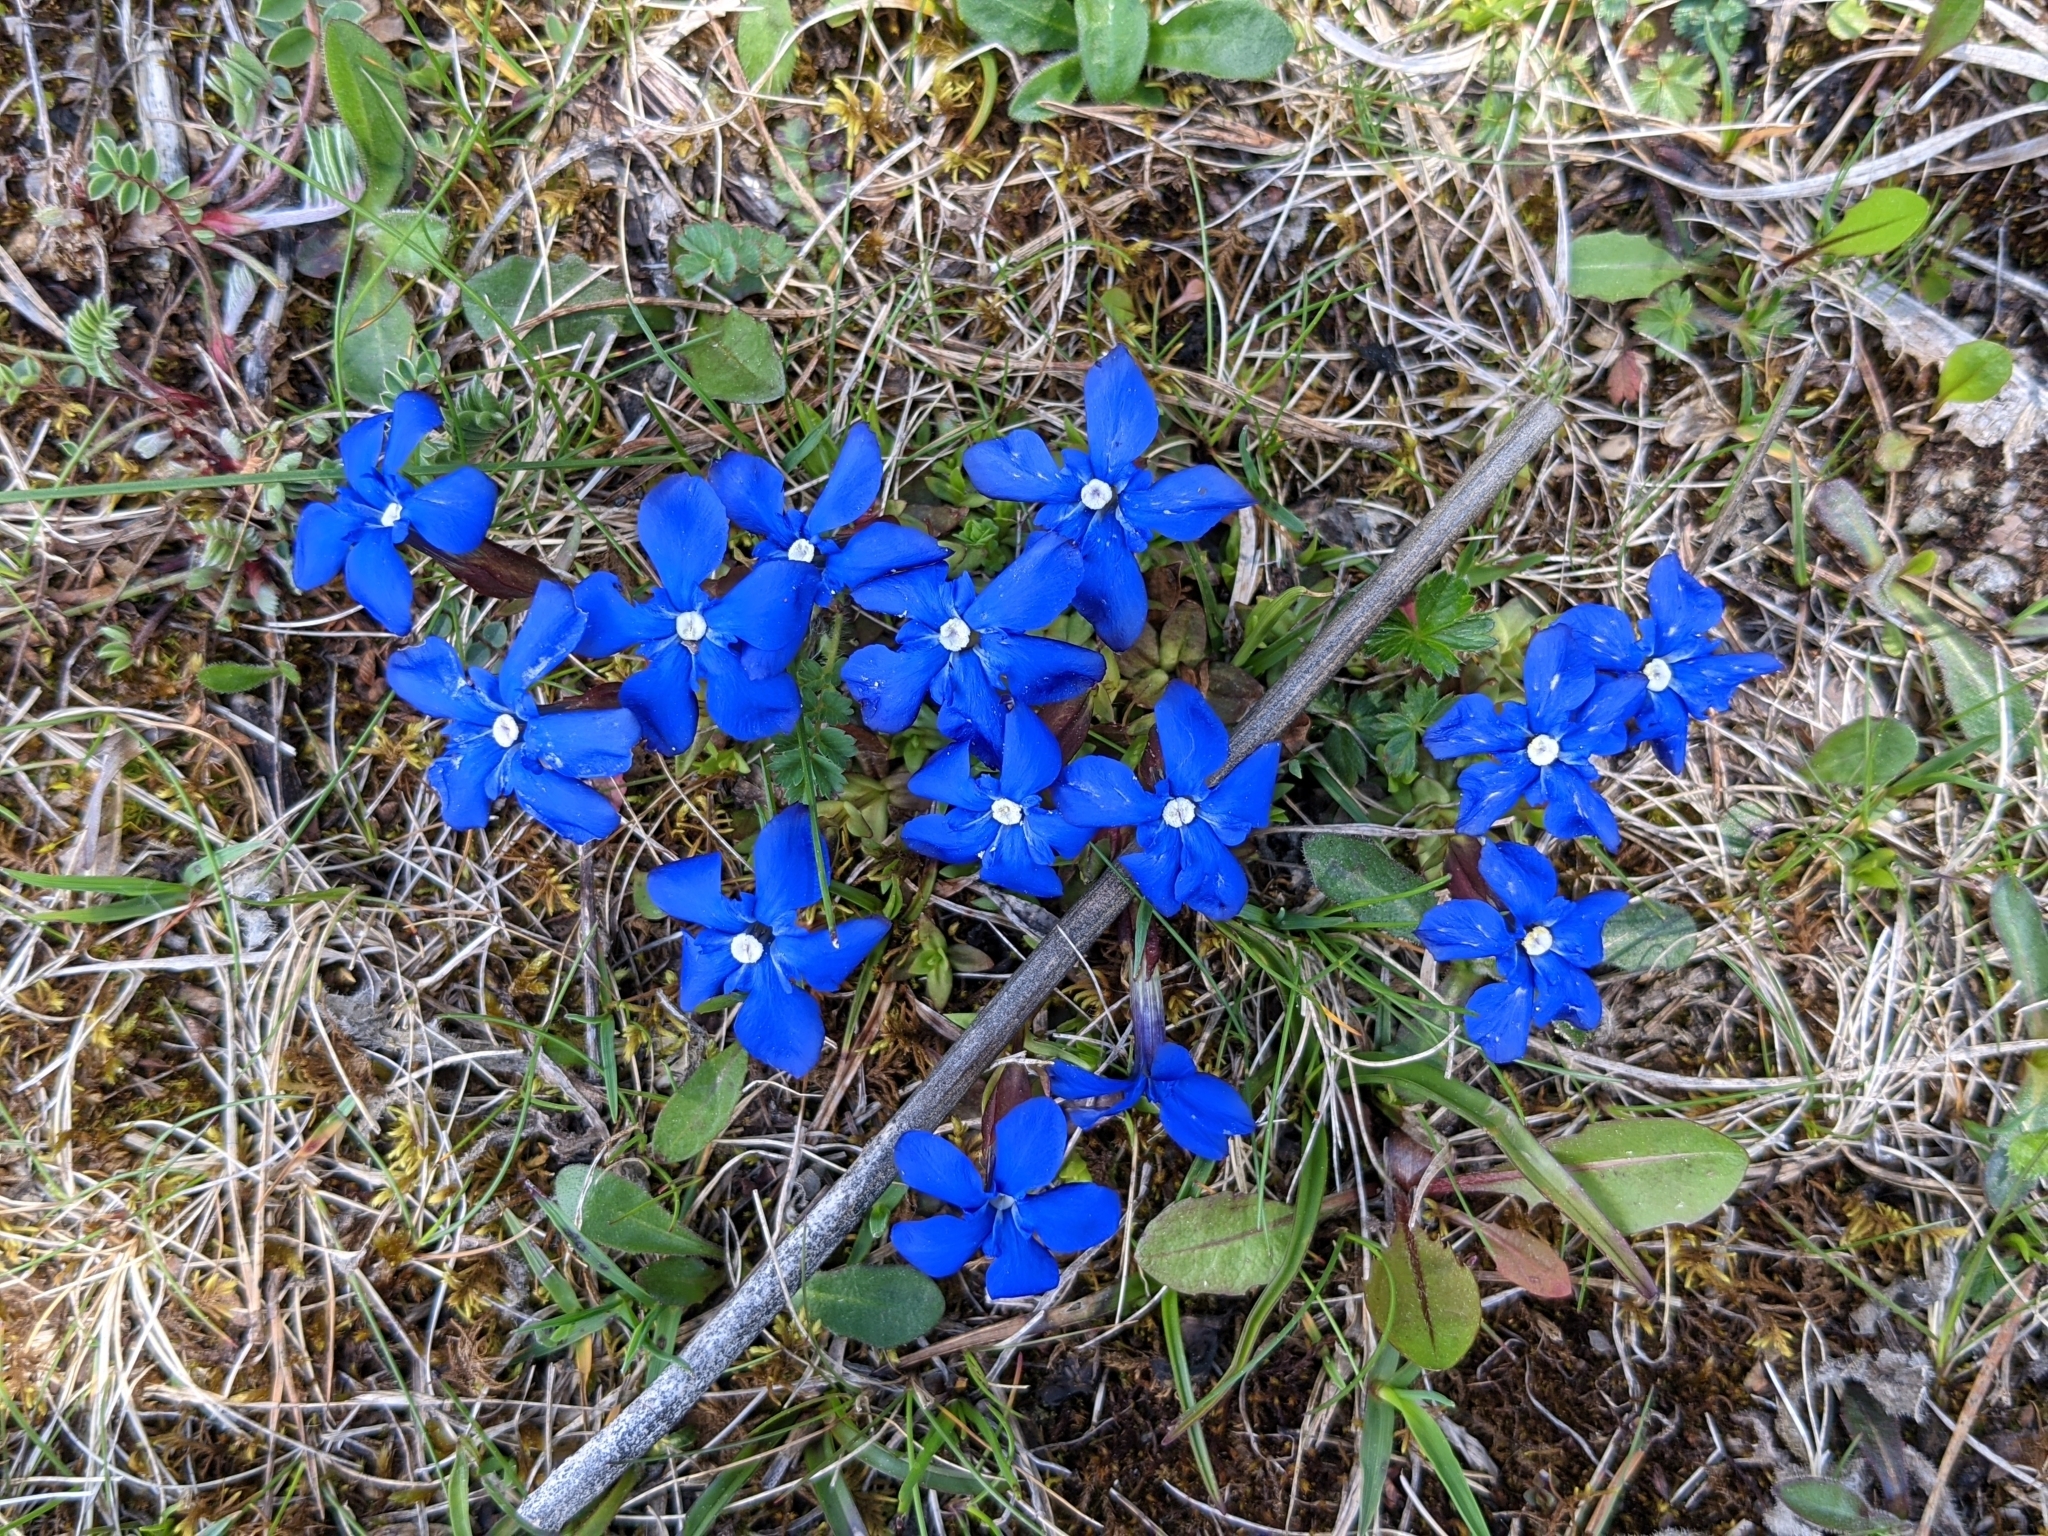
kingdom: Plantae
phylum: Tracheophyta
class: Magnoliopsida
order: Gentianales
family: Gentianaceae
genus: Gentiana
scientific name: Gentiana verna
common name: Spring gentian
